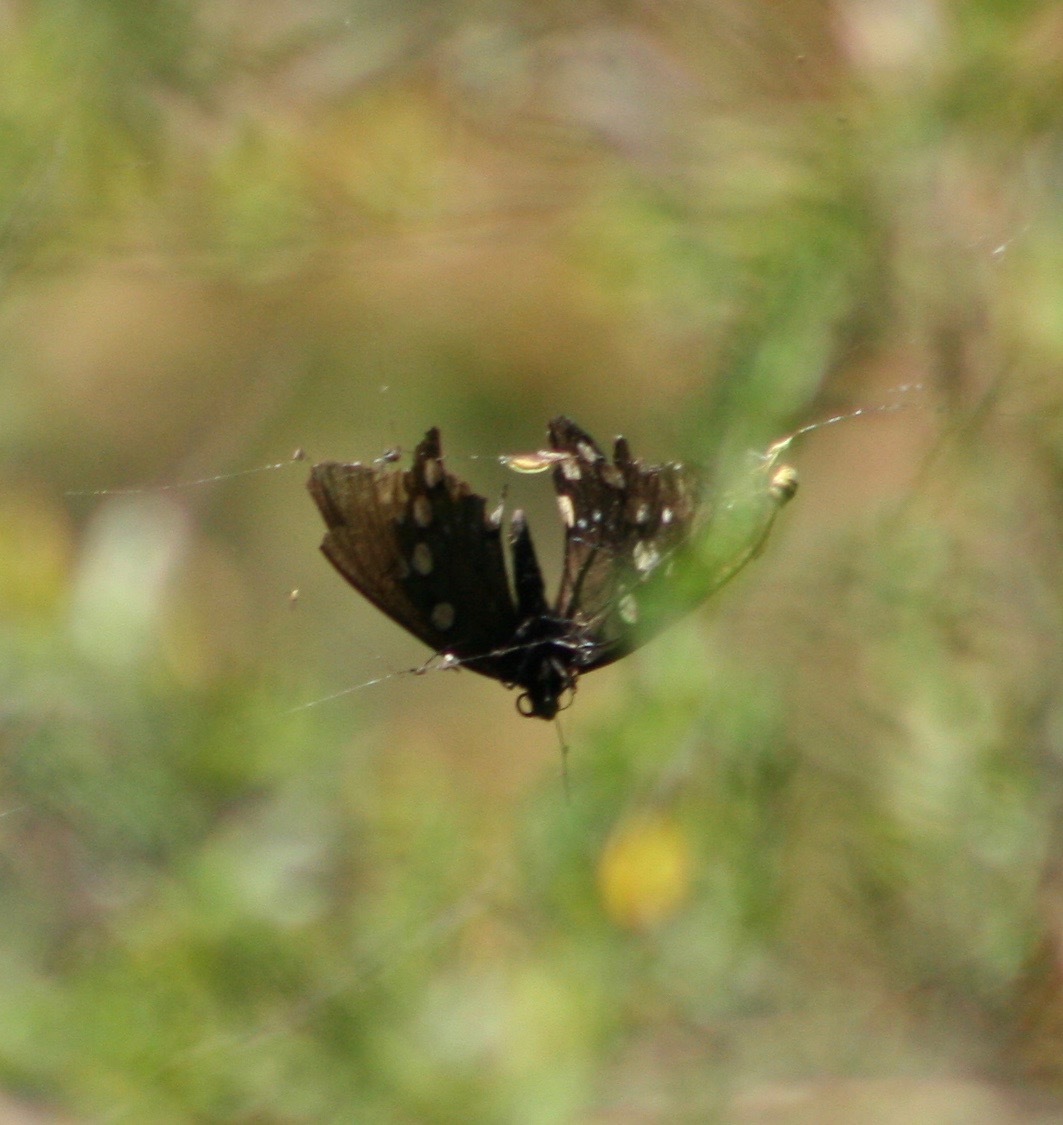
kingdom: Animalia
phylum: Arthropoda
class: Insecta
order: Lepidoptera
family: Papilionidae
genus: Battus
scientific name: Battus philenor
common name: Pipevine swallowtail
